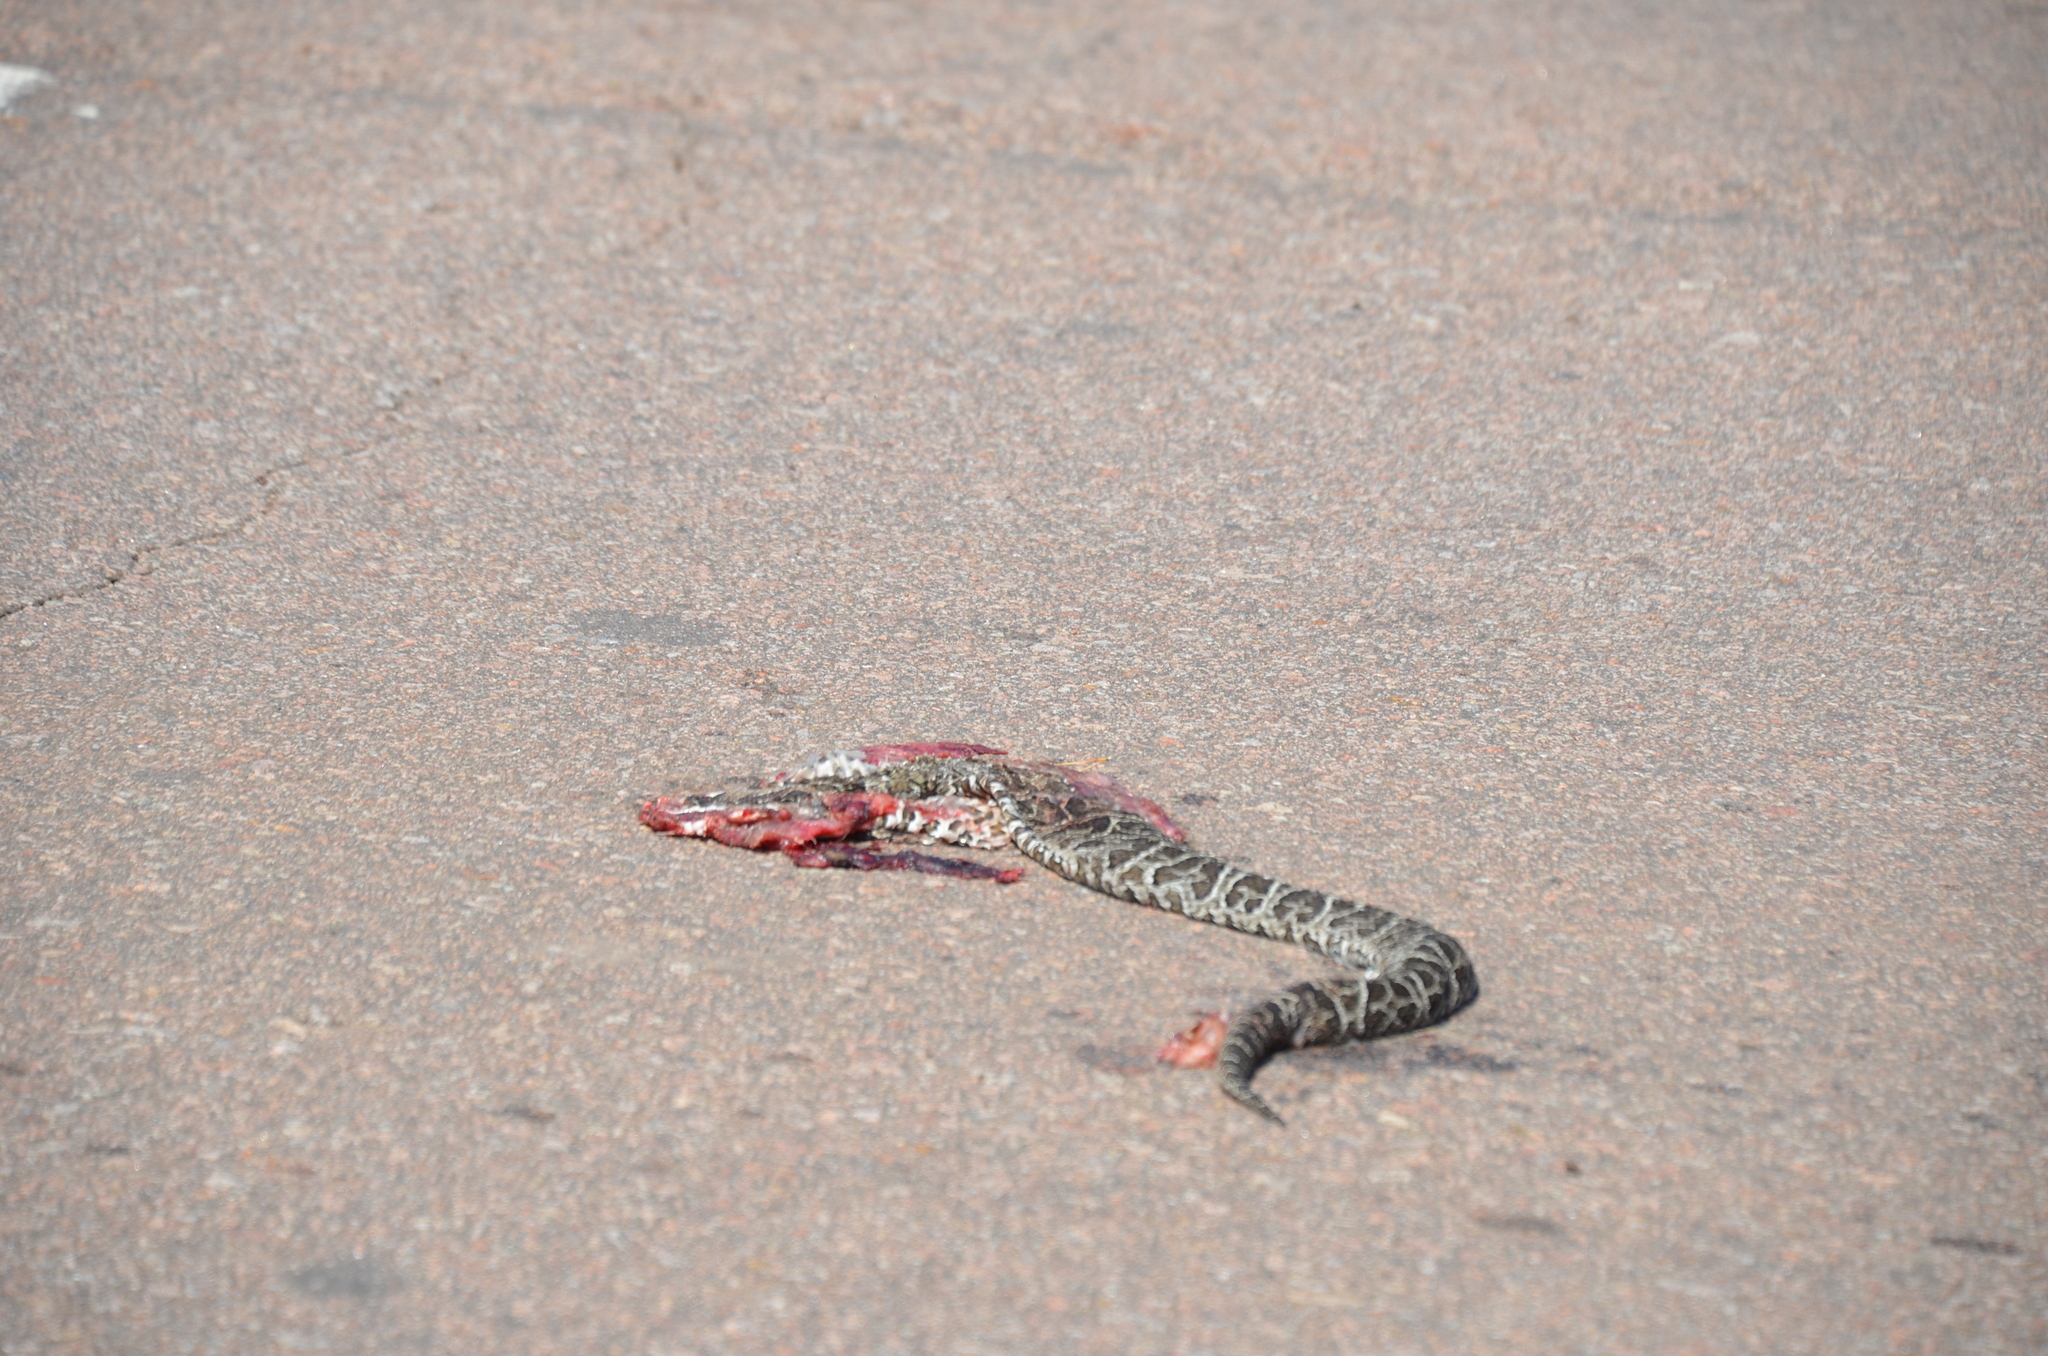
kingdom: Animalia
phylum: Chordata
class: Squamata
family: Viperidae
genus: Bothrops
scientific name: Bothrops alternatus
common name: Urutu
